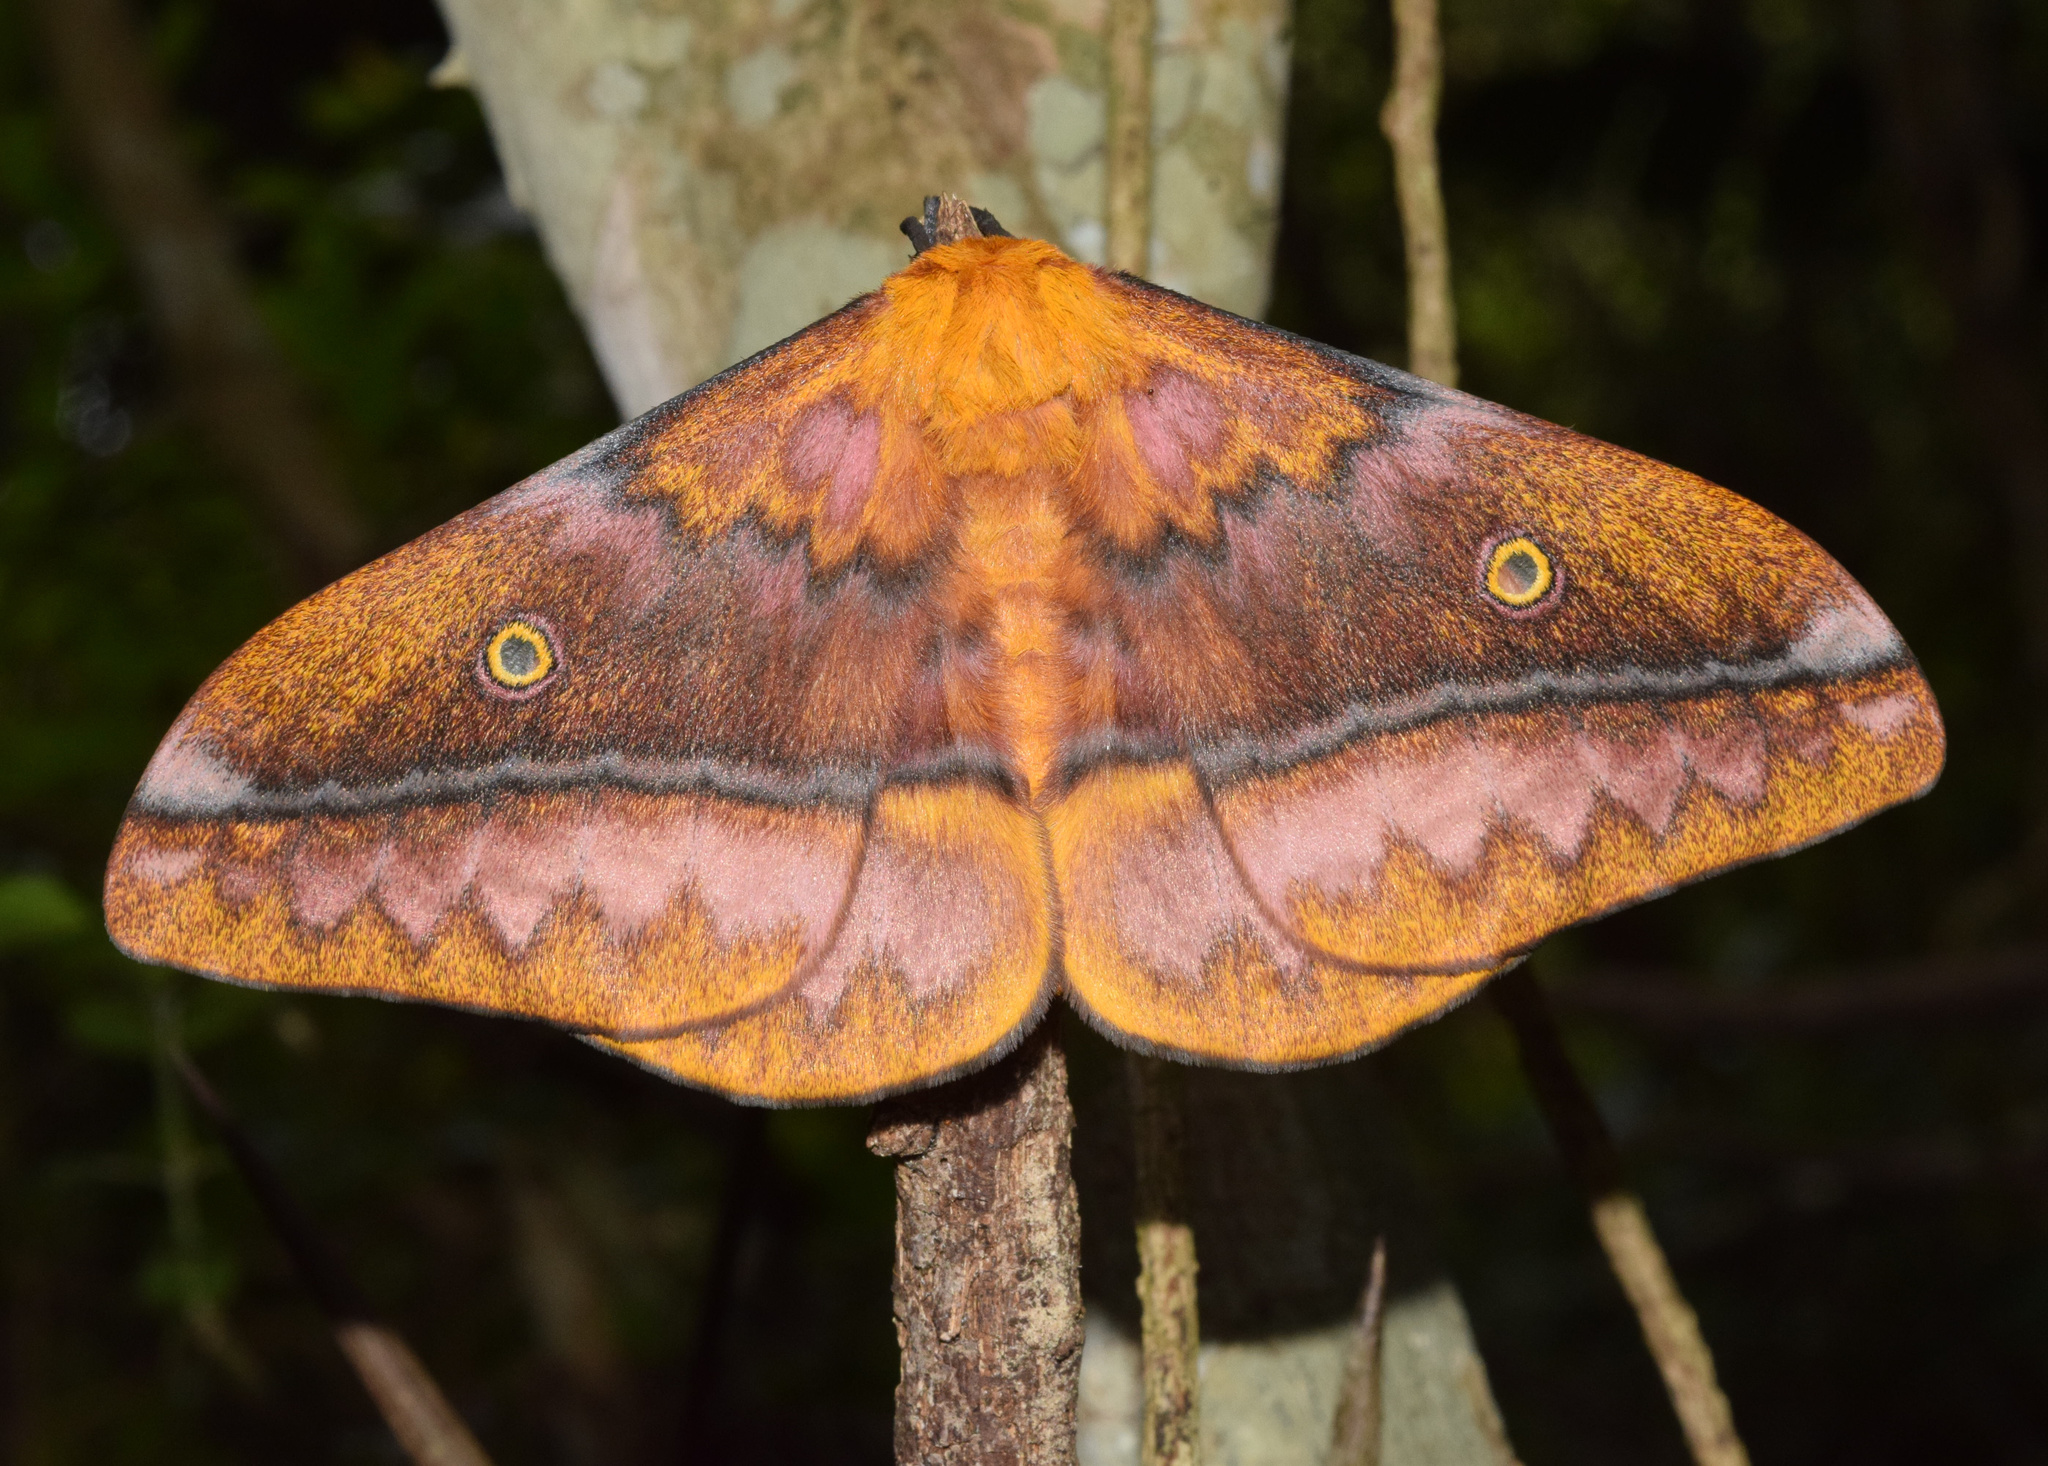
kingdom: Animalia
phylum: Arthropoda
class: Insecta
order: Lepidoptera
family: Saturniidae
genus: Nudaurelia
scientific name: Nudaurelia wahlbergi
